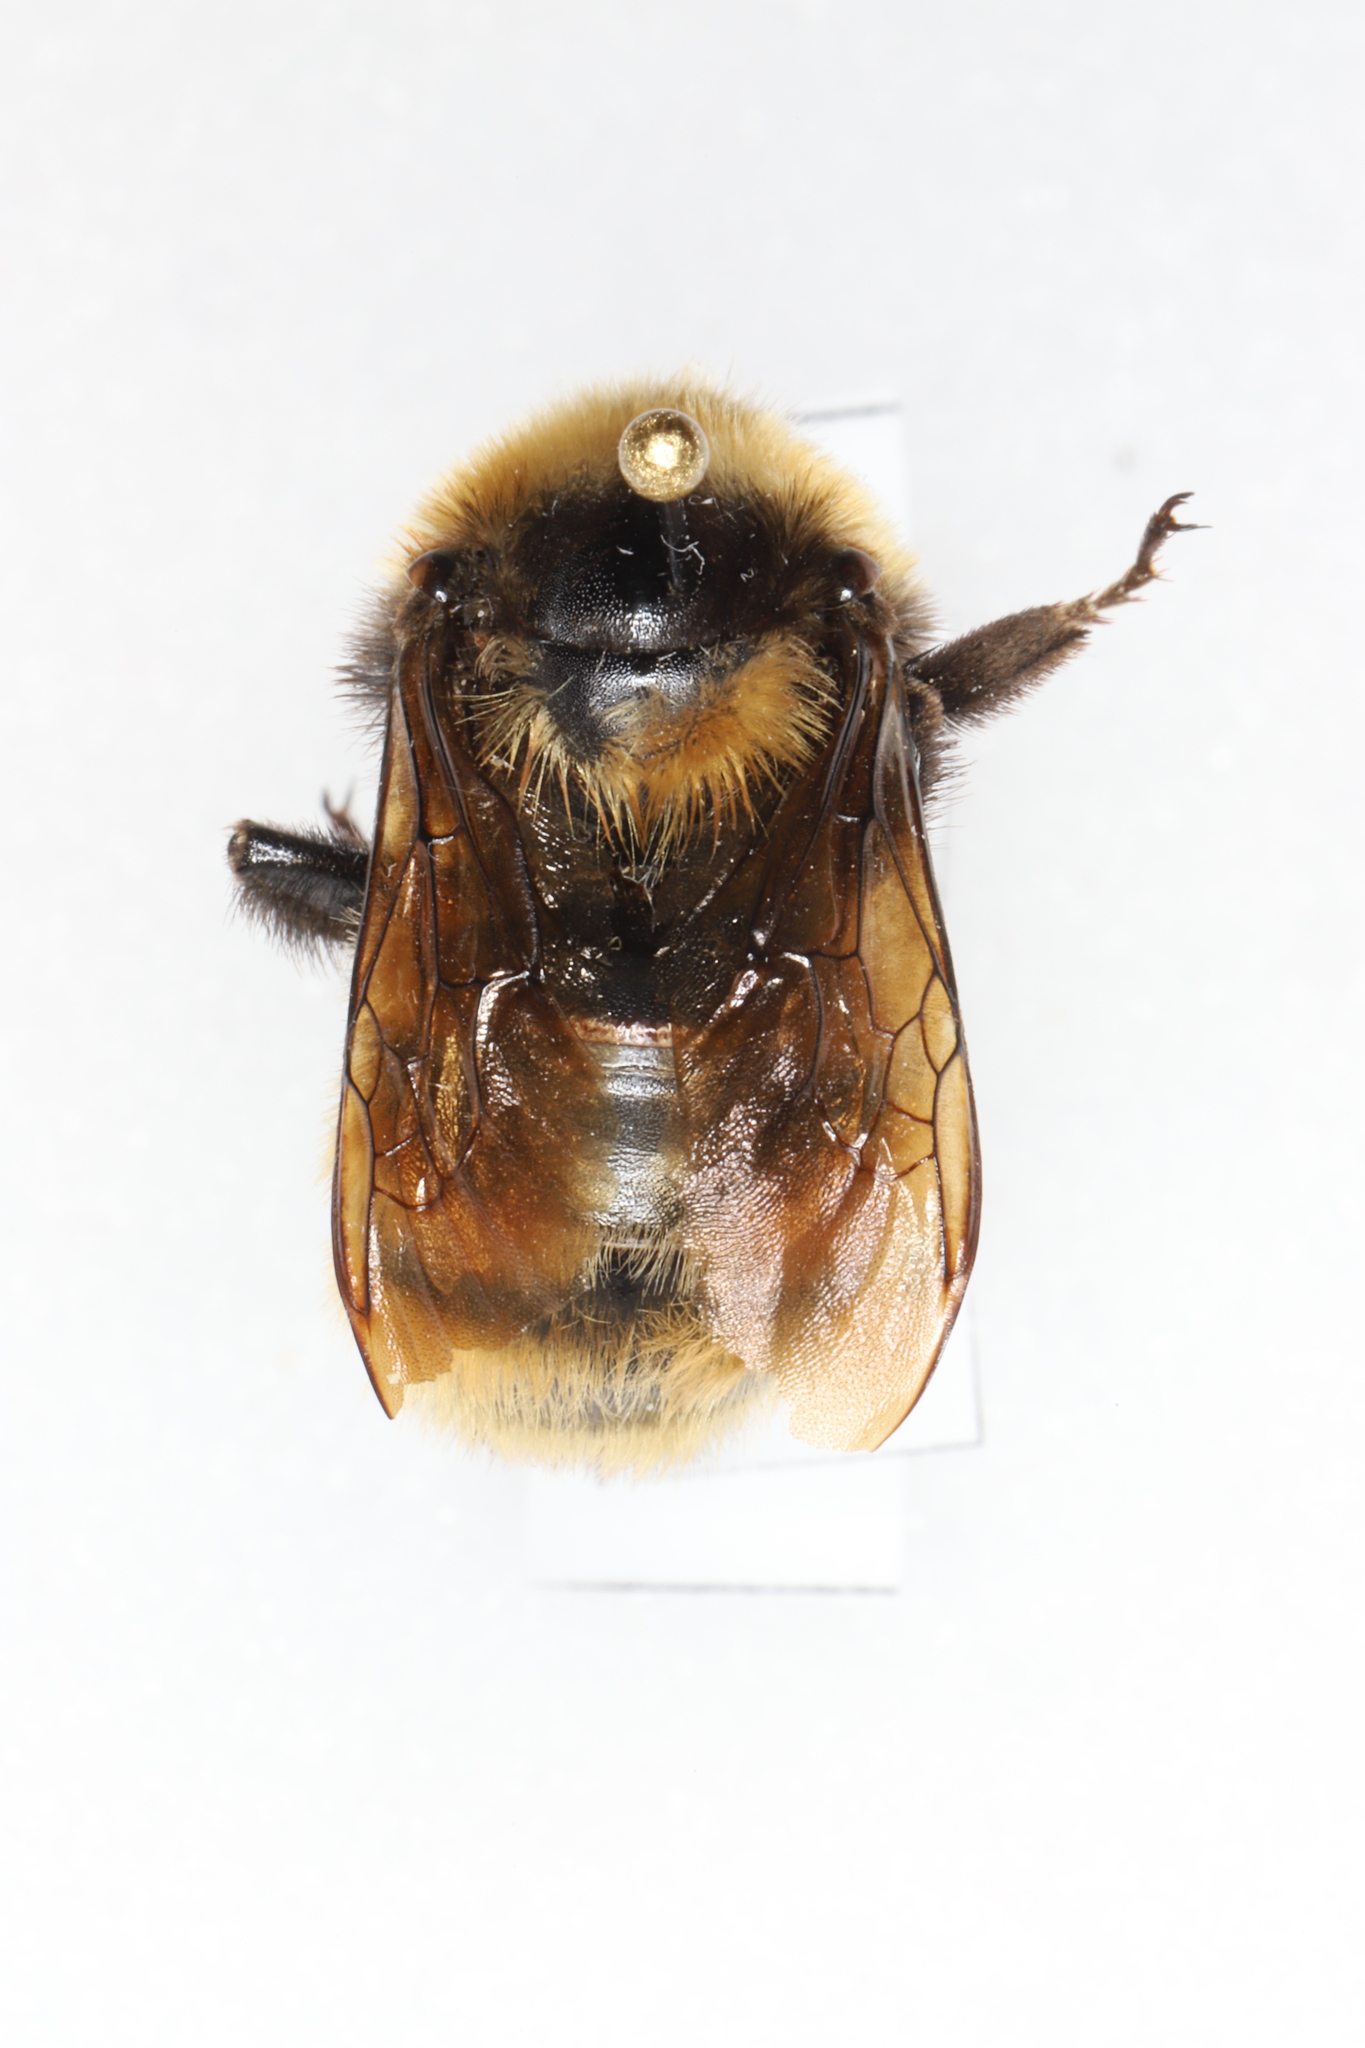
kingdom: Animalia
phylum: Arthropoda
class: Insecta
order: Hymenoptera
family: Apidae
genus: Bombus
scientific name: Bombus borealis
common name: Northern amber bumble bee
